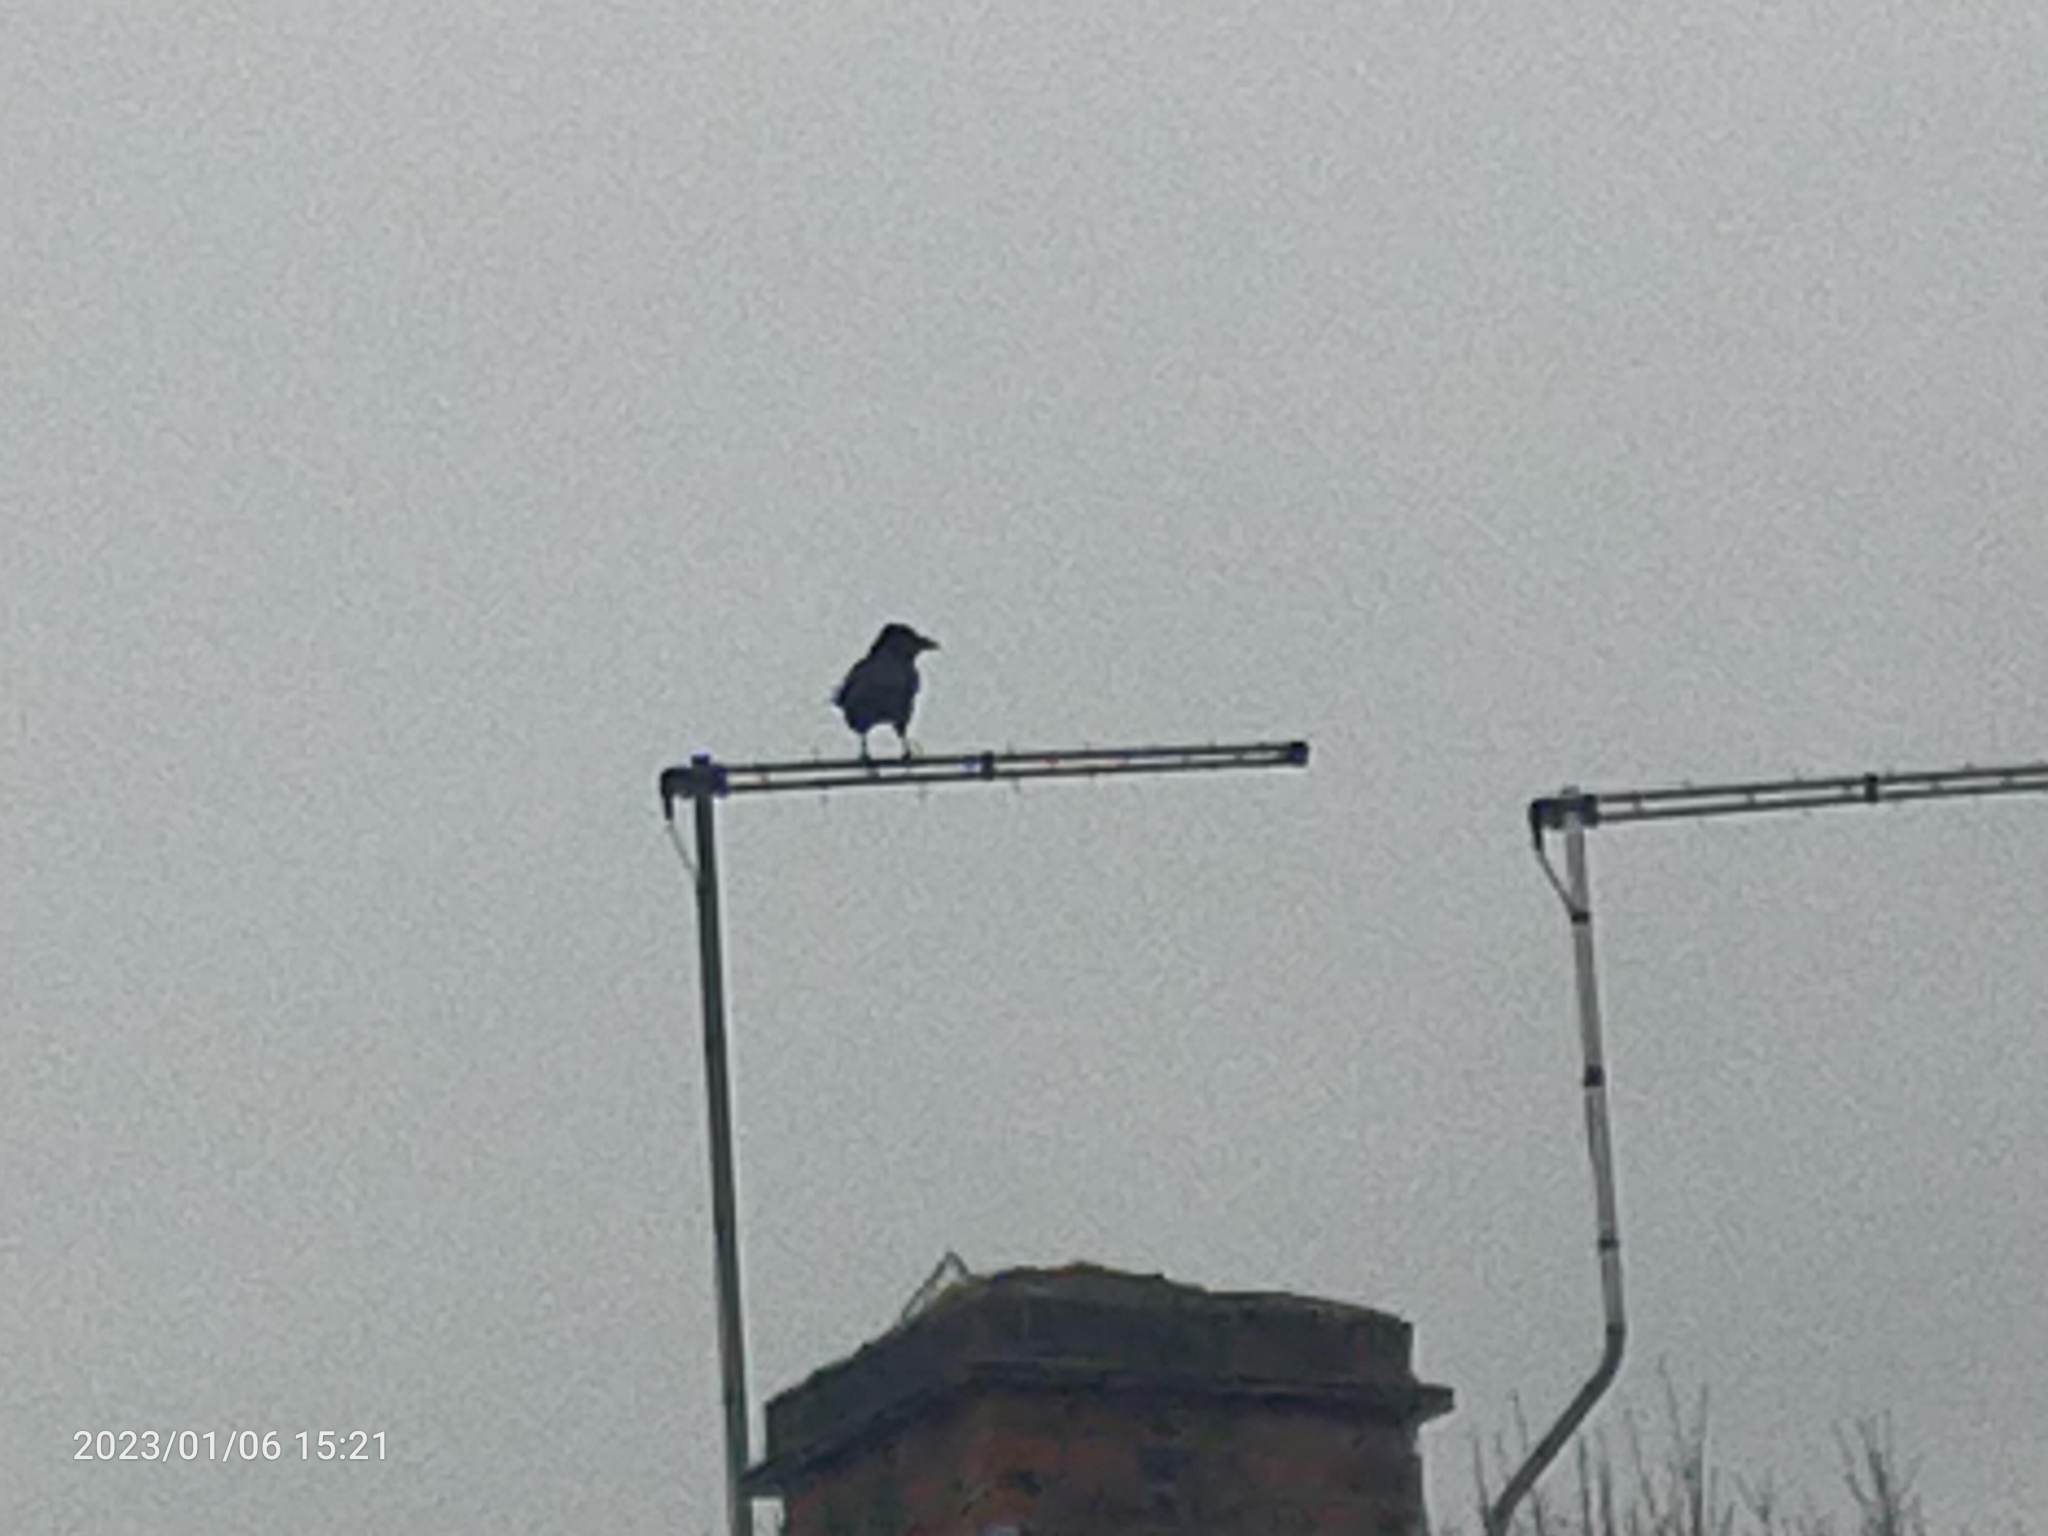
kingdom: Animalia
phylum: Chordata
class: Aves
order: Passeriformes
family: Corvidae
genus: Corvus
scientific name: Corvus corax
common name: Common raven
